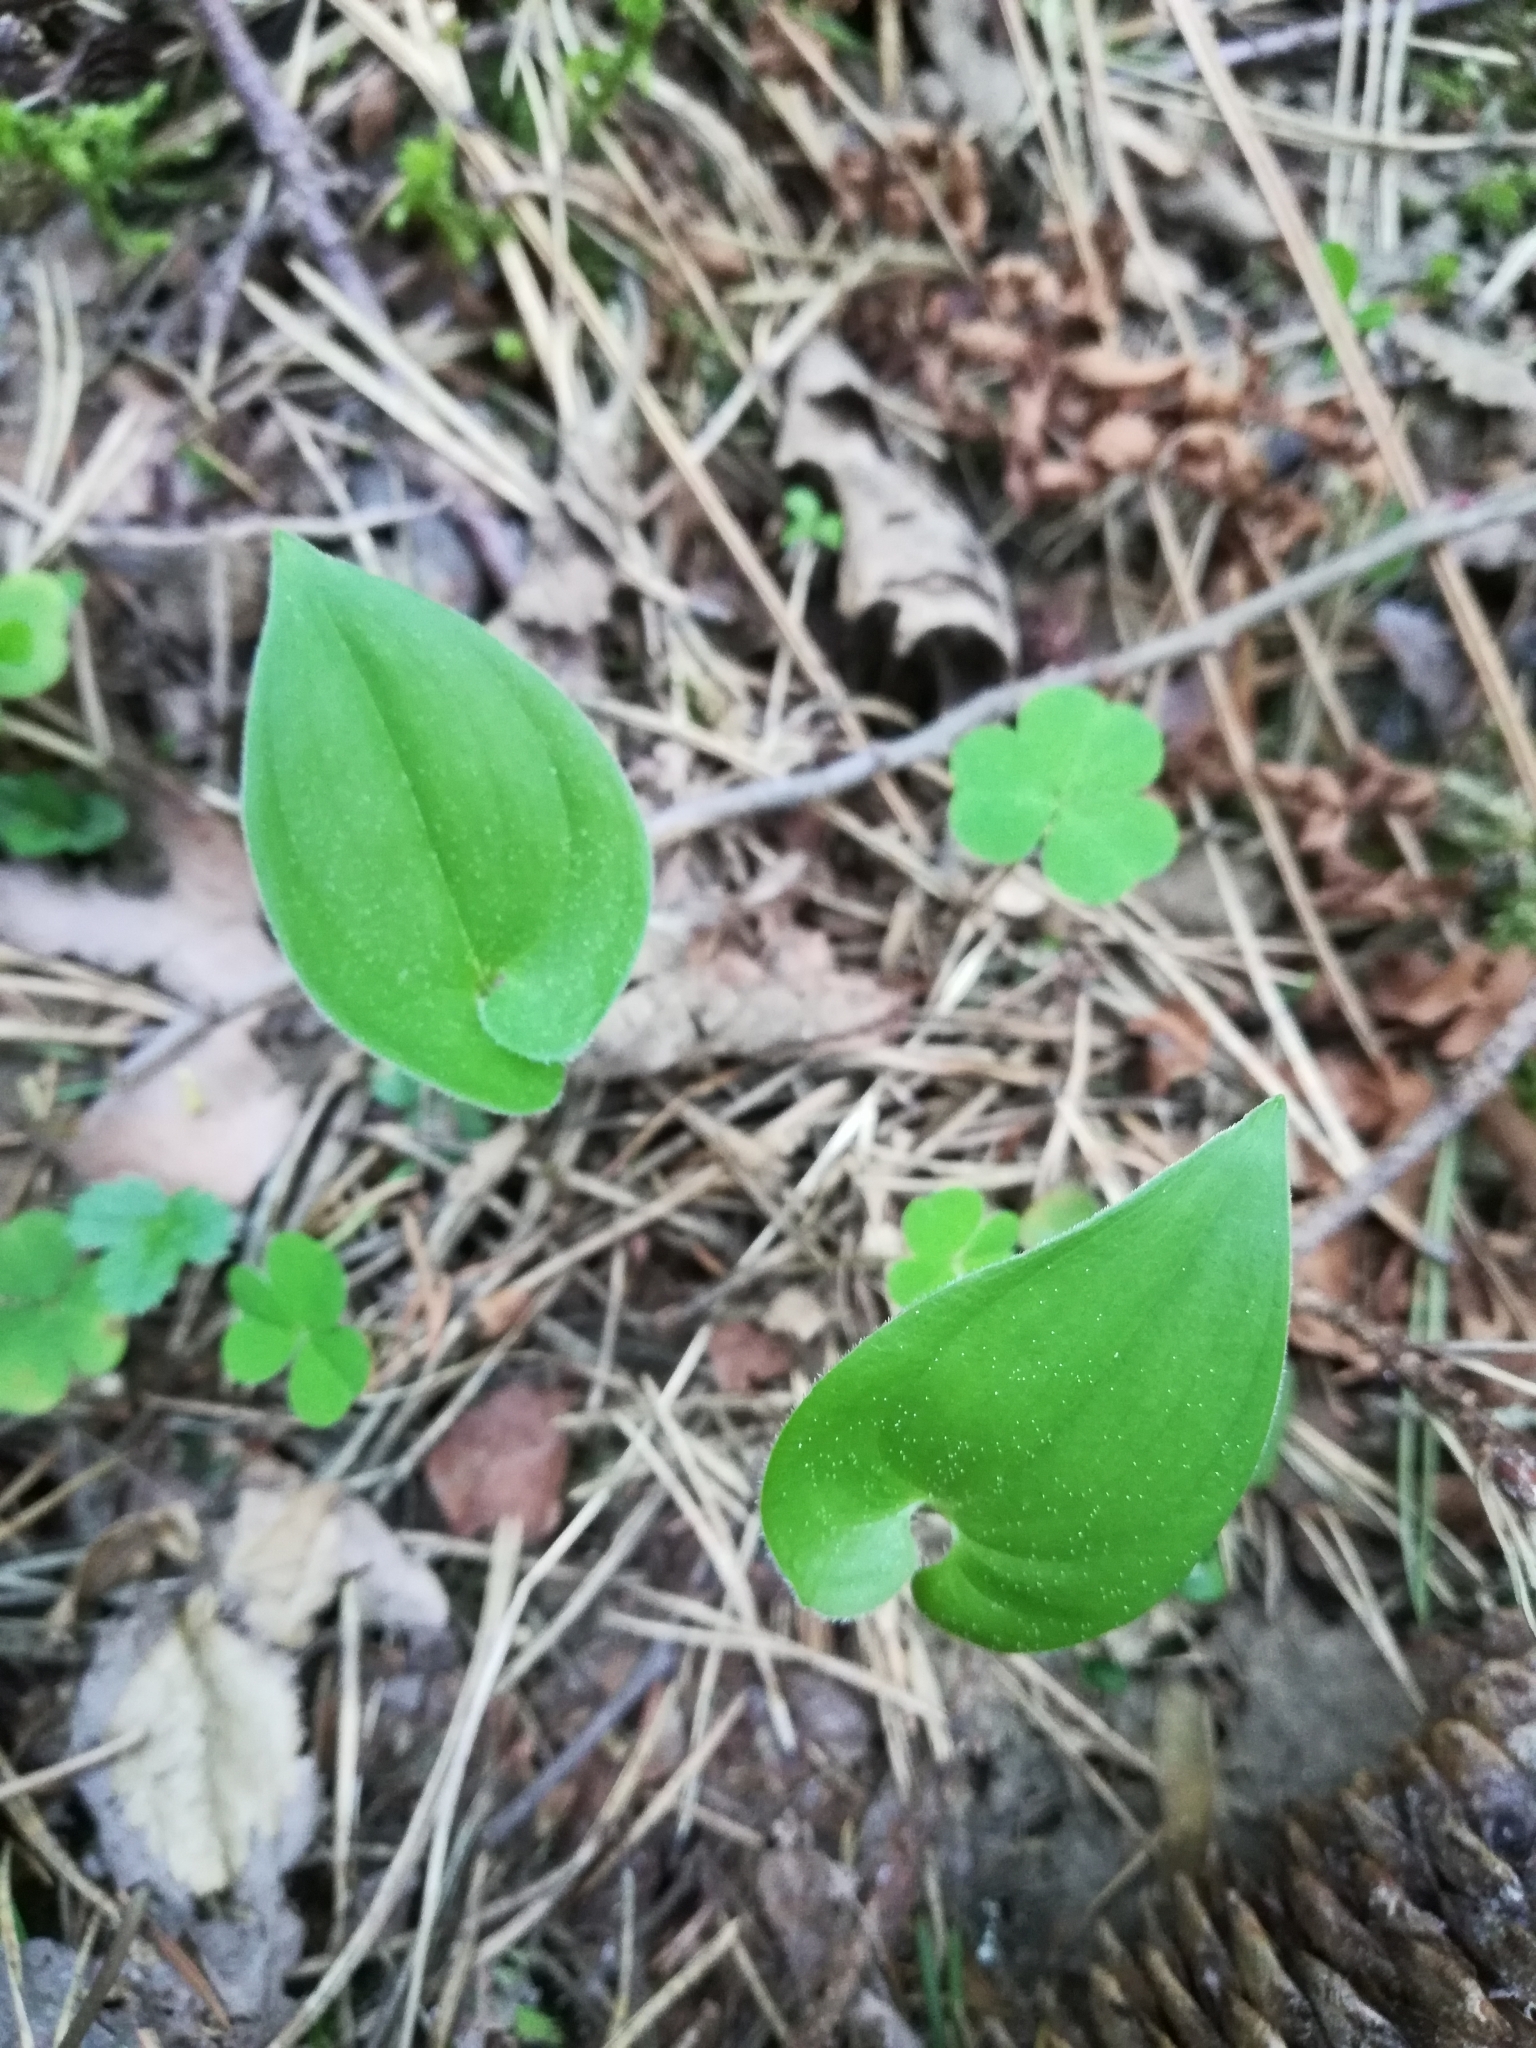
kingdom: Plantae
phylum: Tracheophyta
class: Liliopsida
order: Asparagales
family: Asparagaceae
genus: Maianthemum
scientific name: Maianthemum bifolium
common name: May lily
